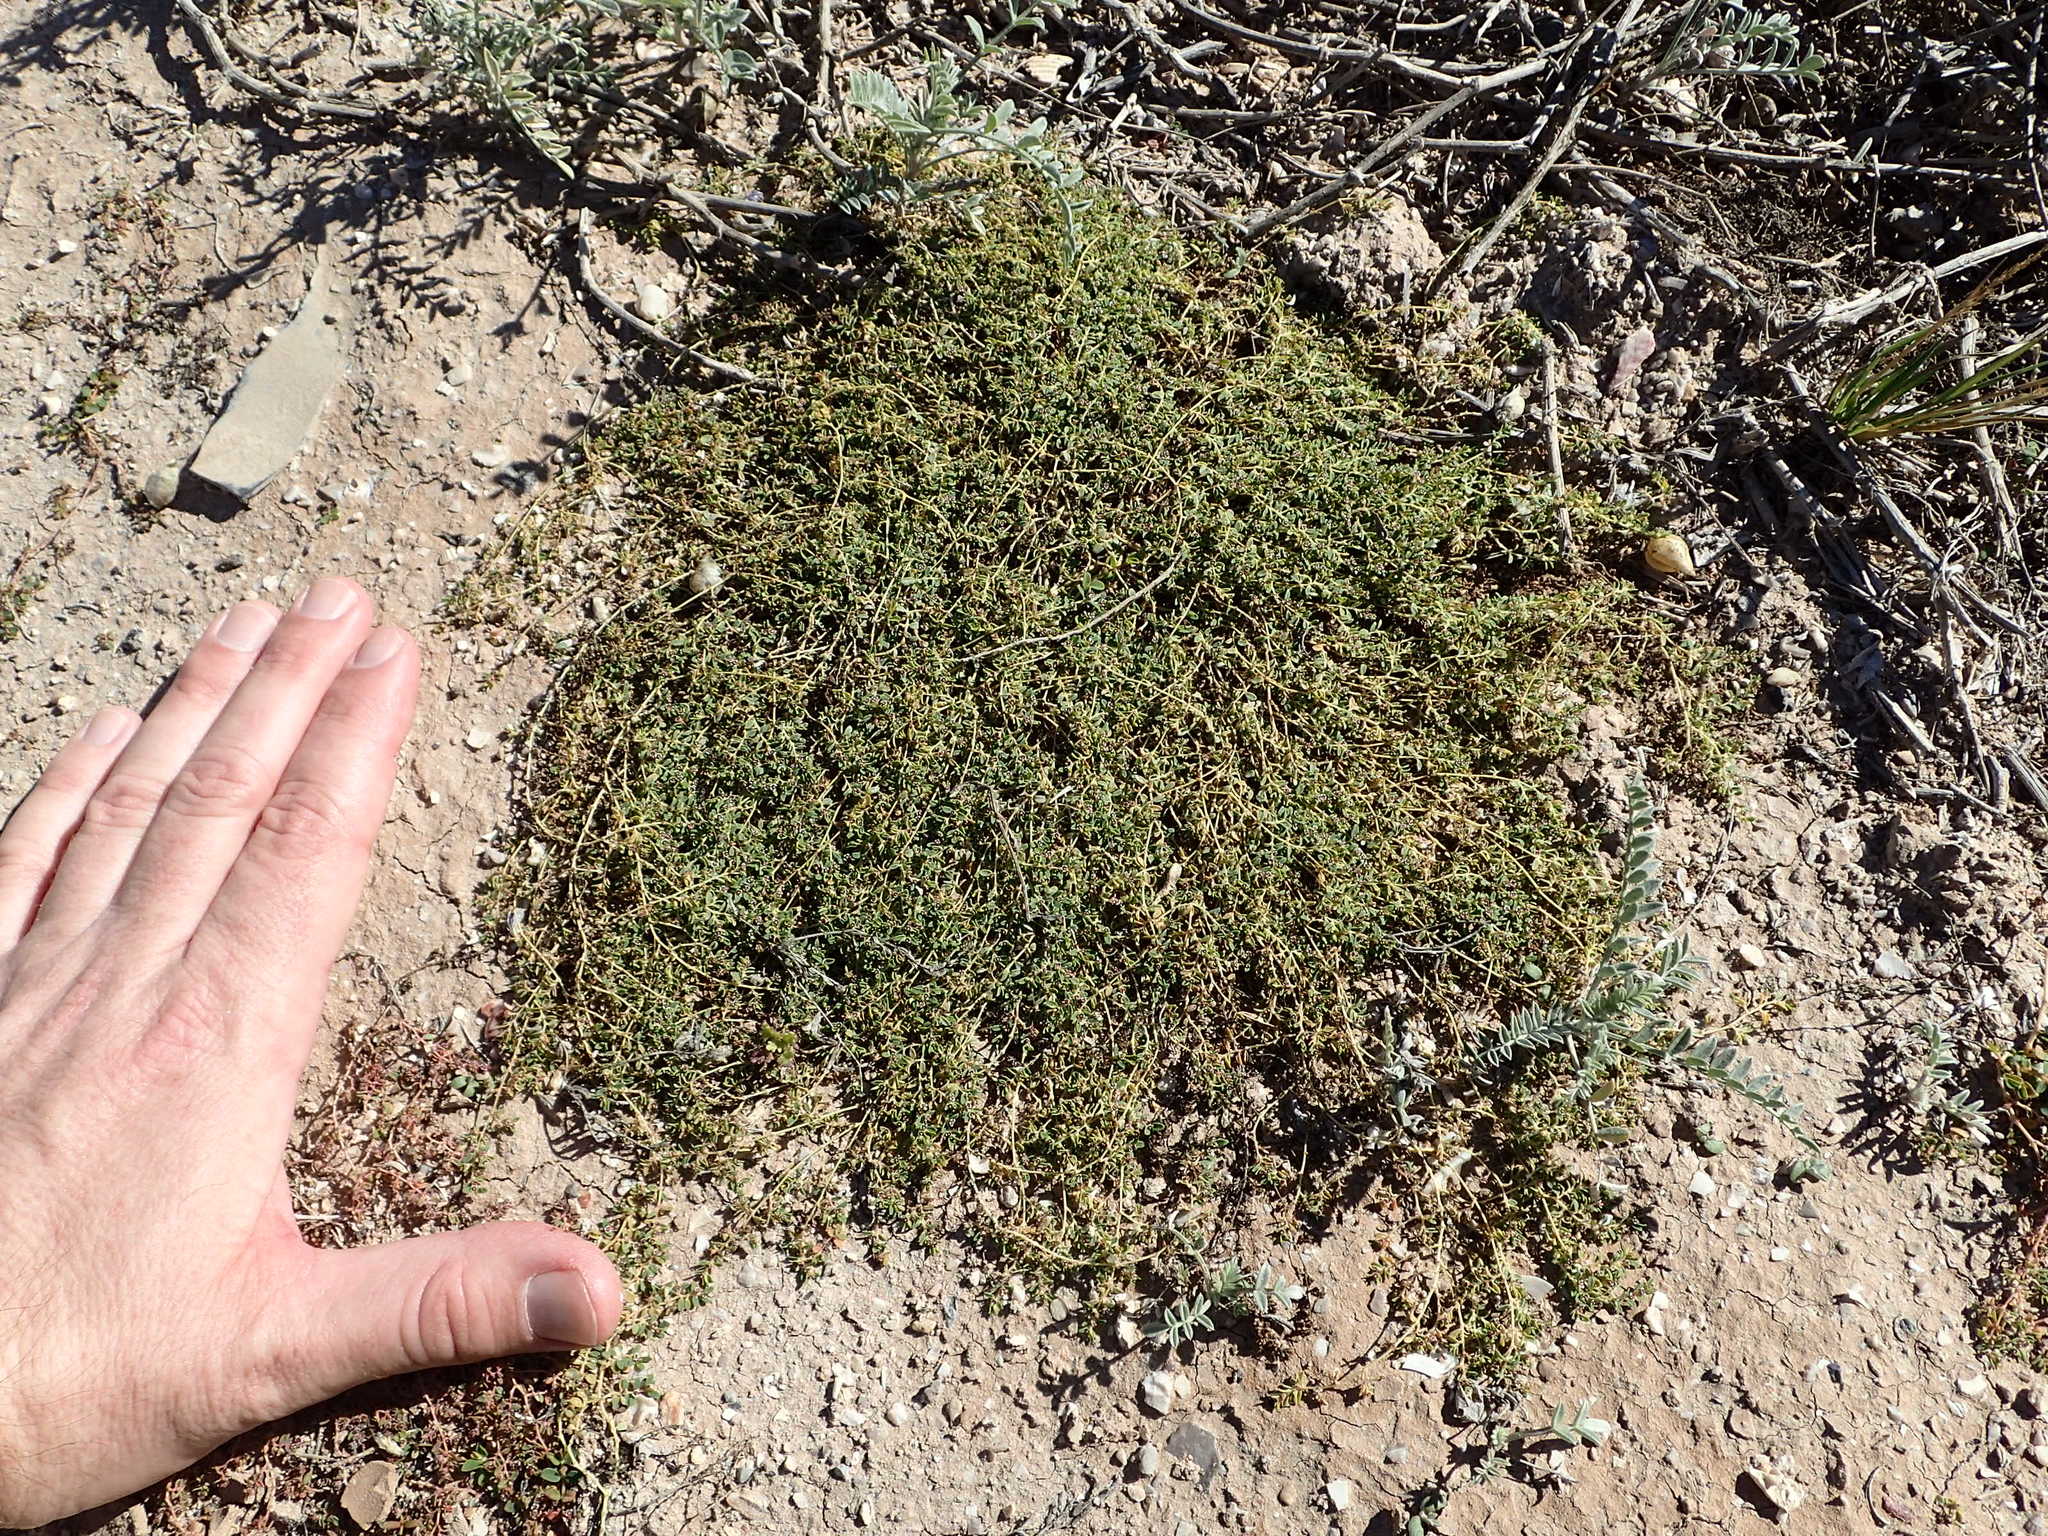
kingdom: Plantae
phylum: Tracheophyta
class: Magnoliopsida
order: Malpighiales
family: Euphorbiaceae
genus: Euphorbia
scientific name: Euphorbia polycarpa
